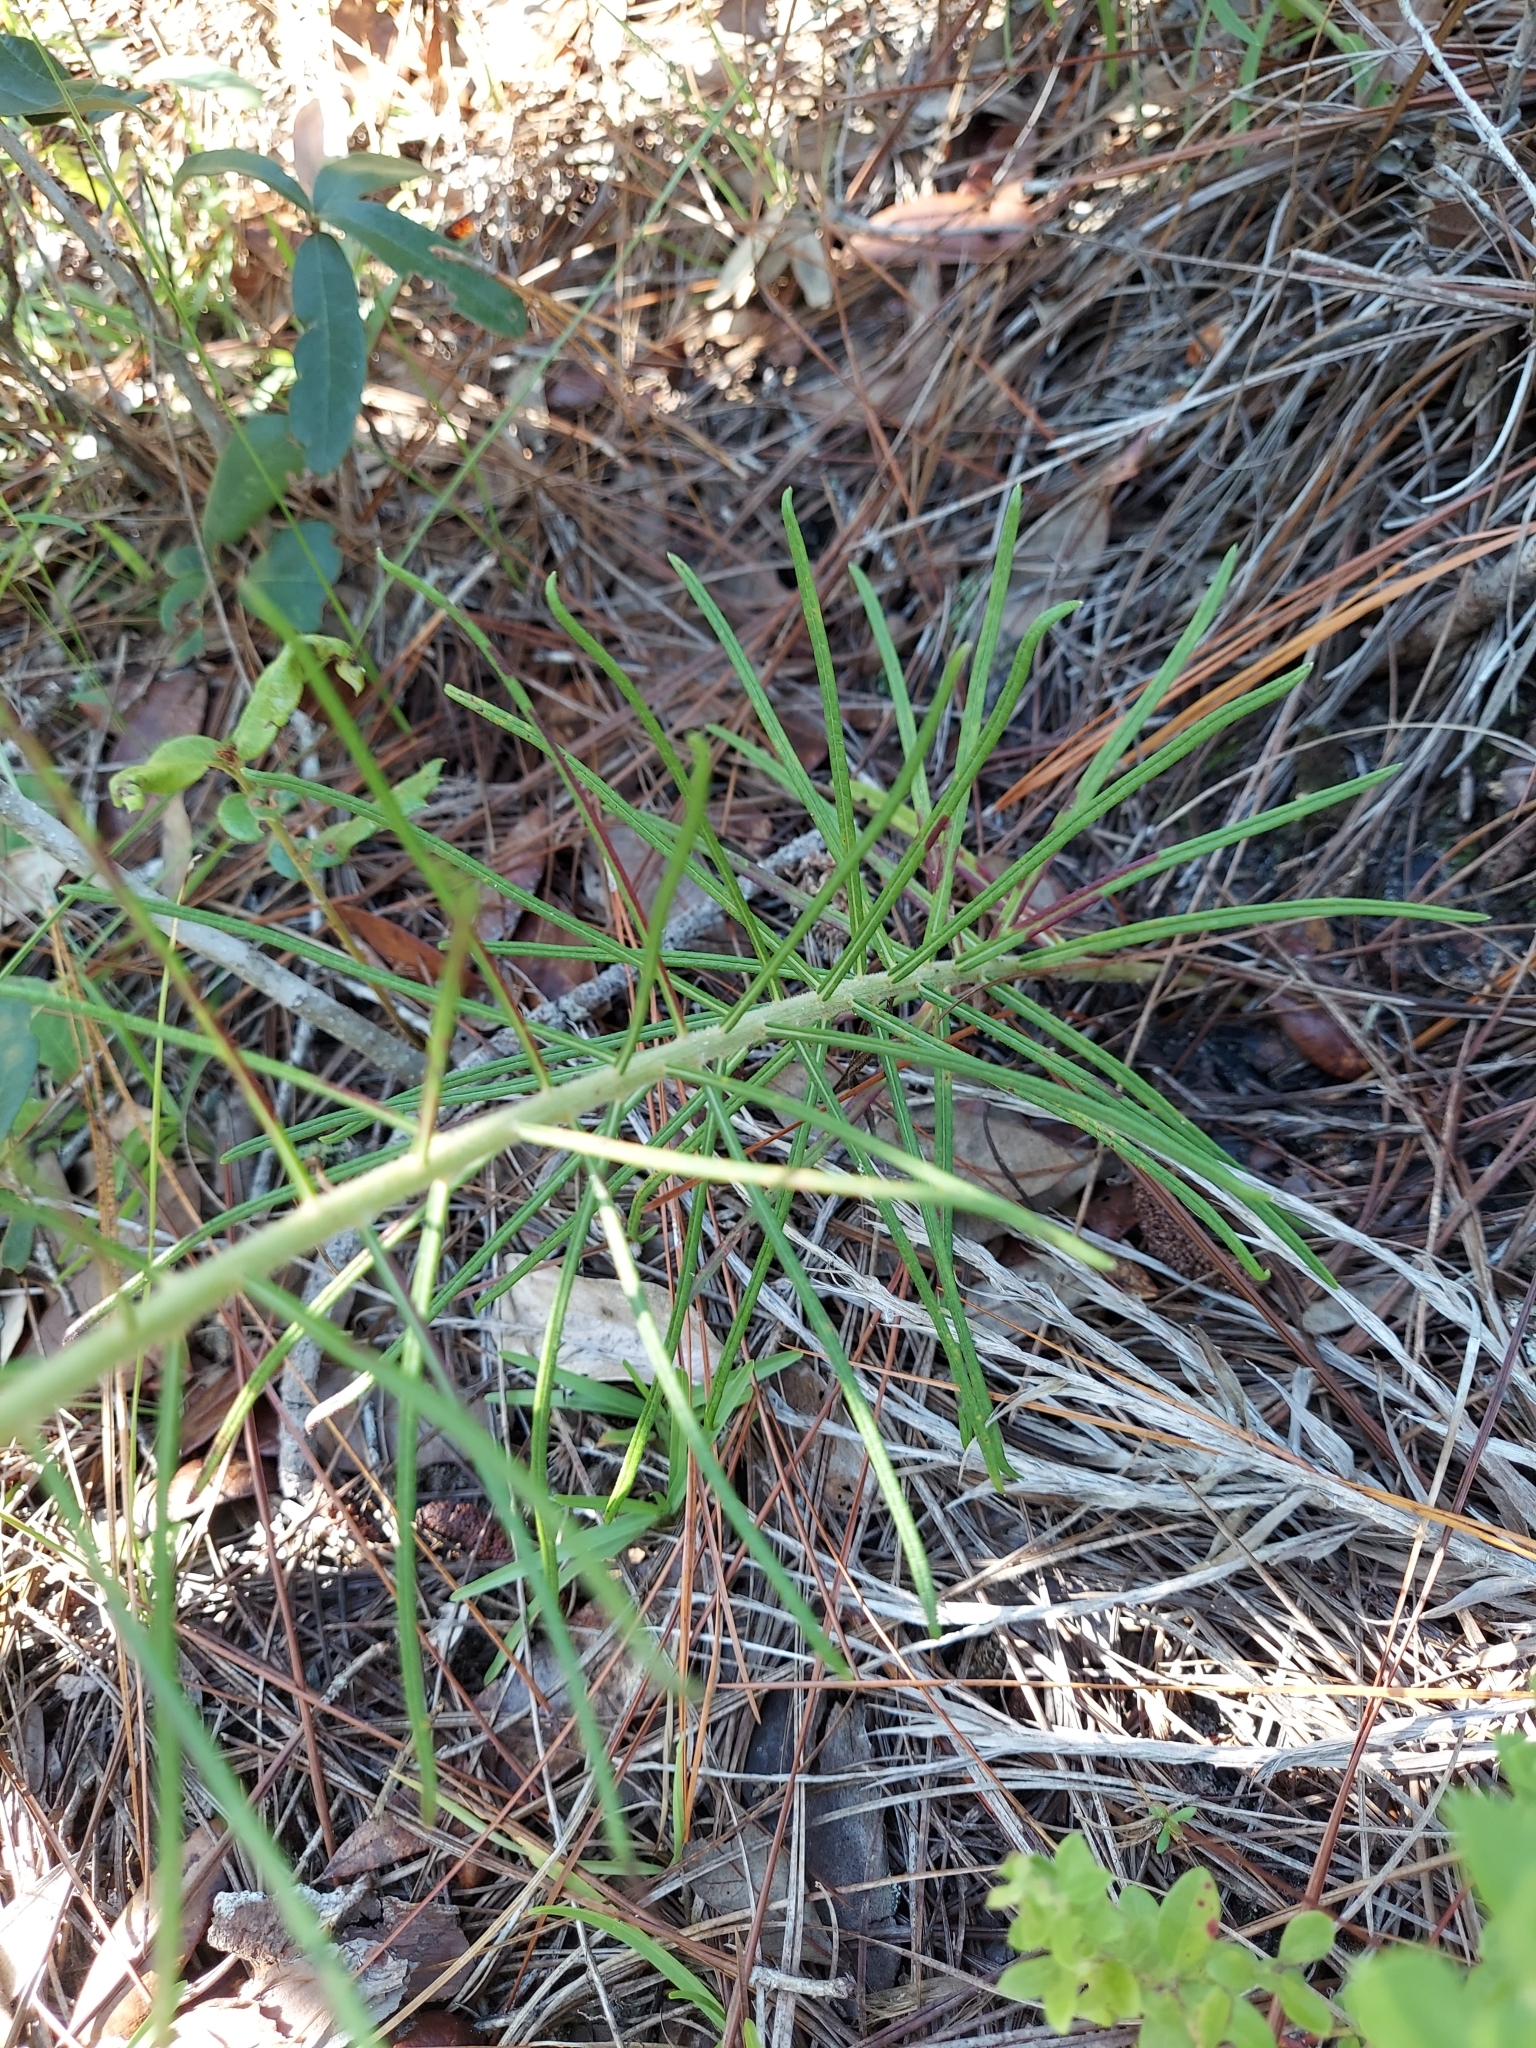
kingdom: Plantae
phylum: Tracheophyta
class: Magnoliopsida
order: Asterales
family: Asteraceae
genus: Vernonia
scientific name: Vernonia angustifolia
